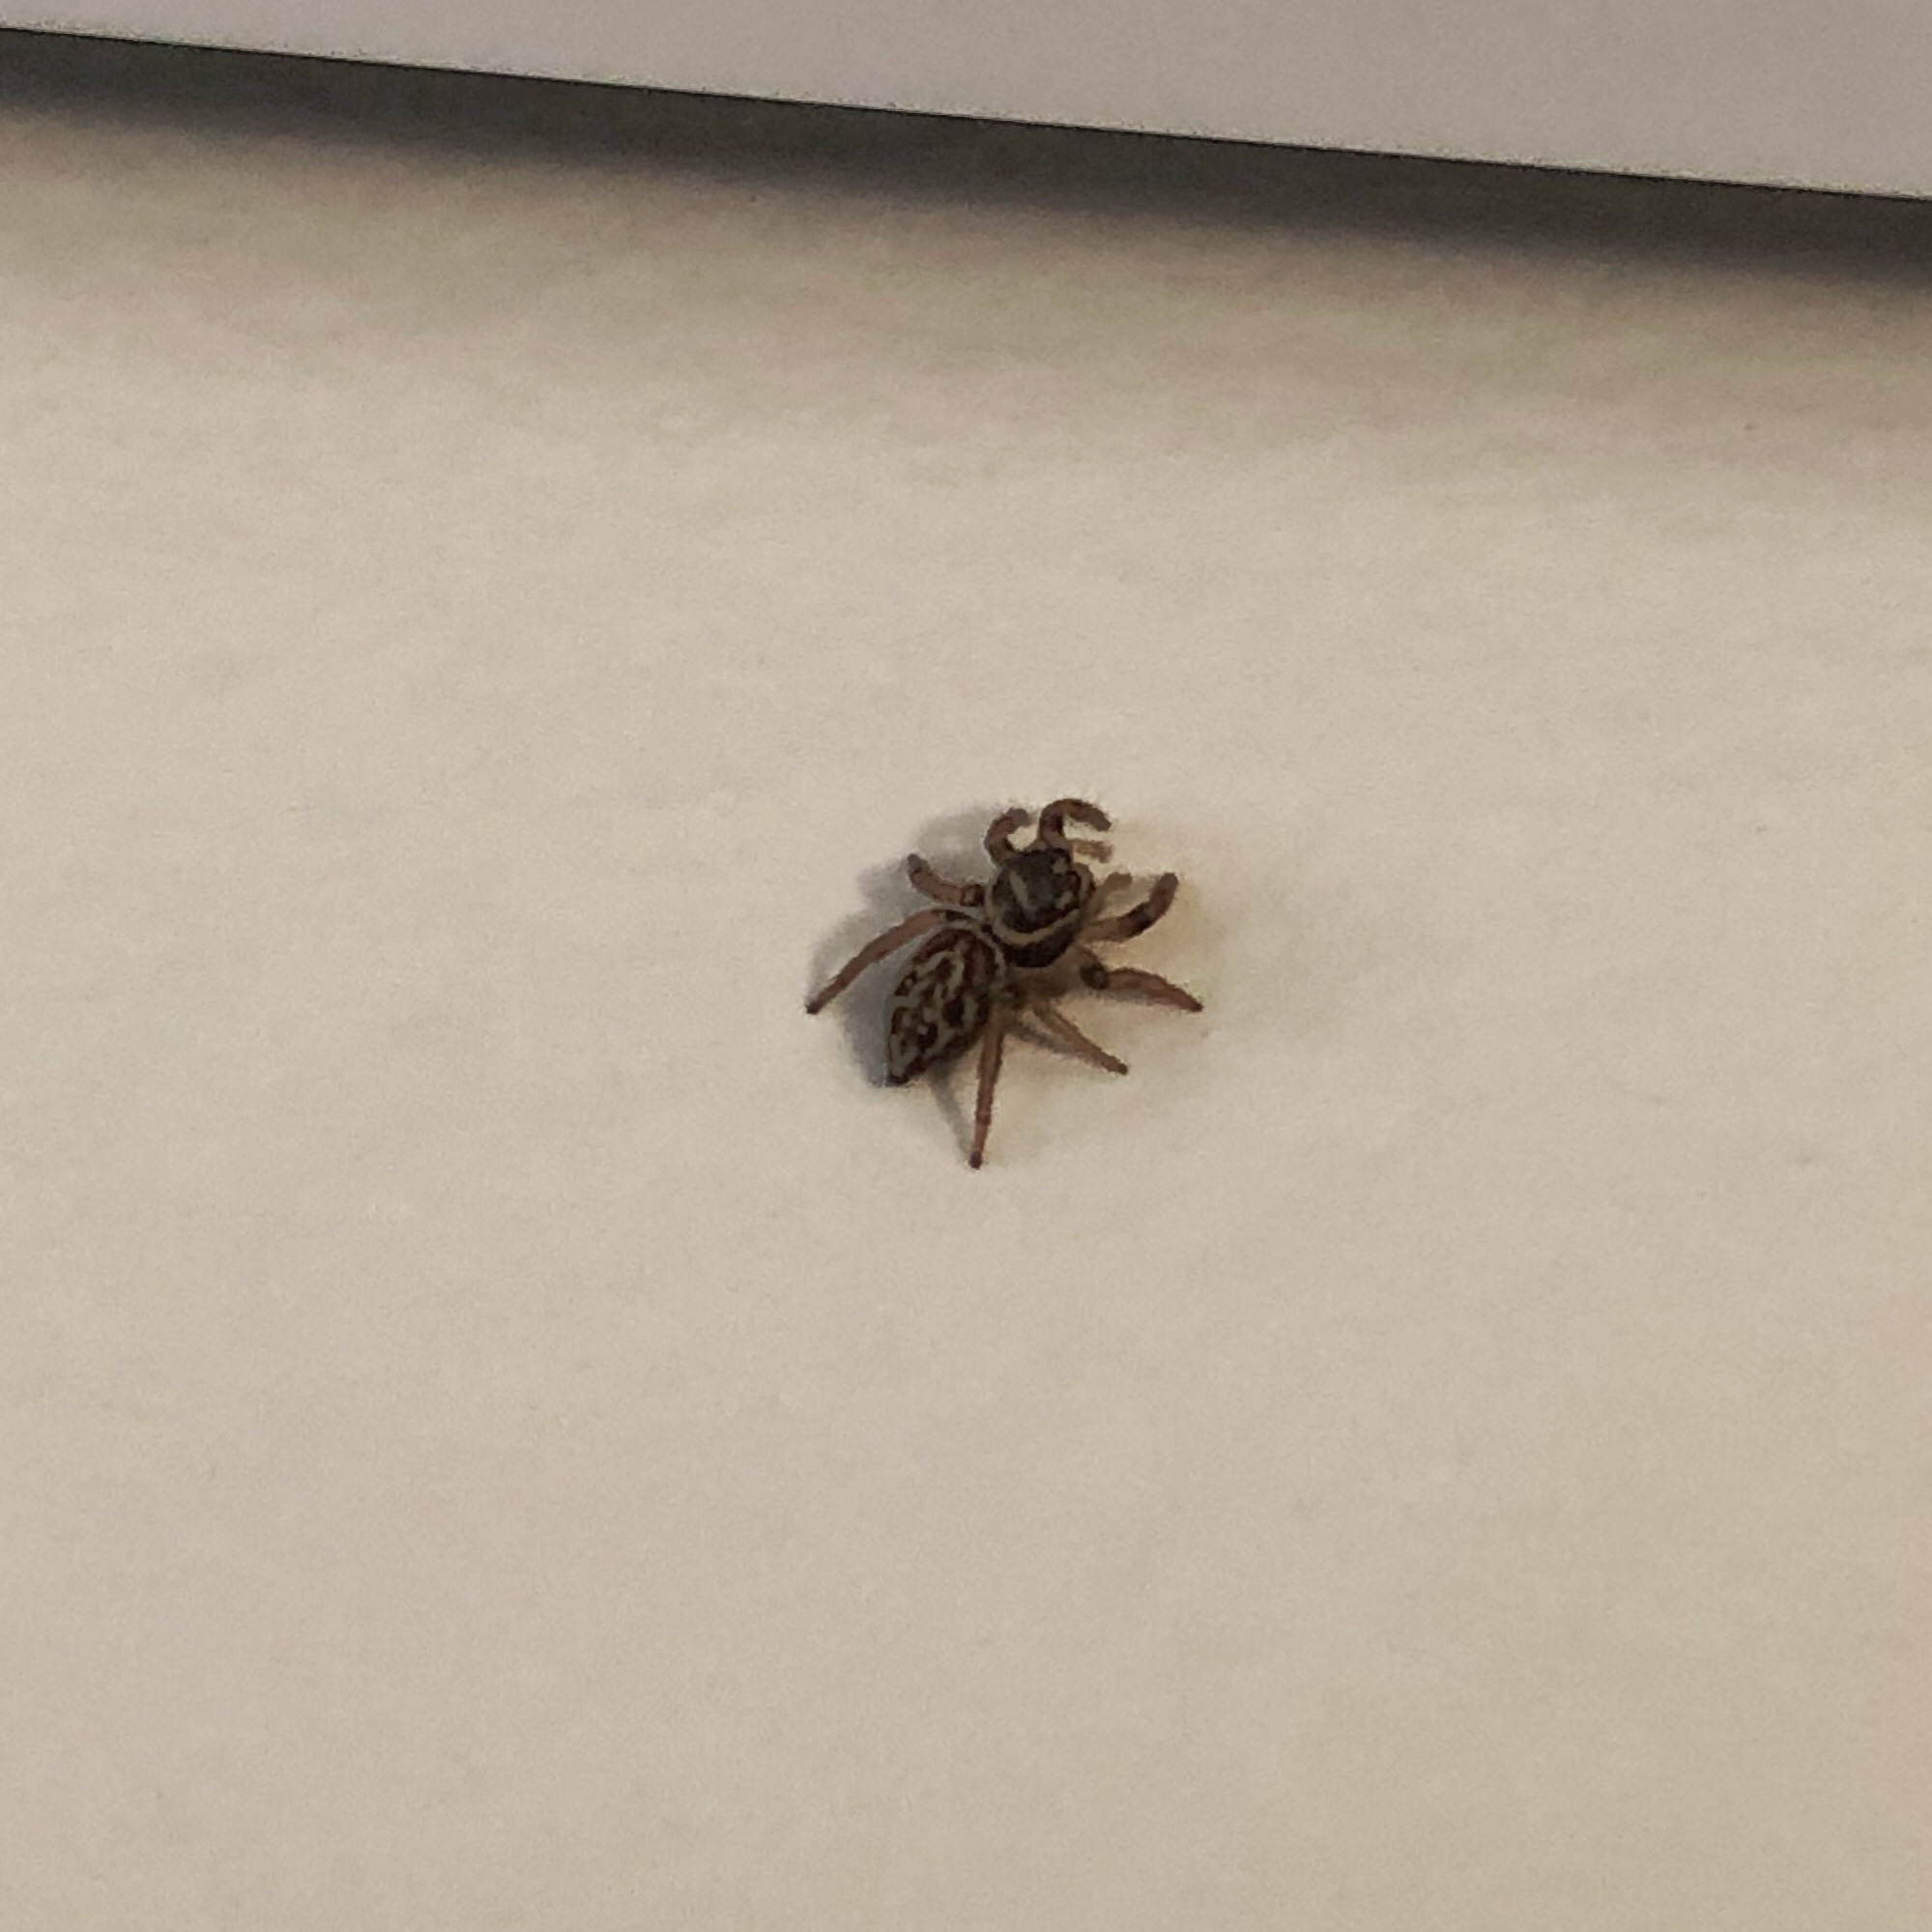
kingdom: Animalia
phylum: Arthropoda
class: Arachnida
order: Araneae
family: Salticidae
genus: Maratus
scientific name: Maratus griseus
